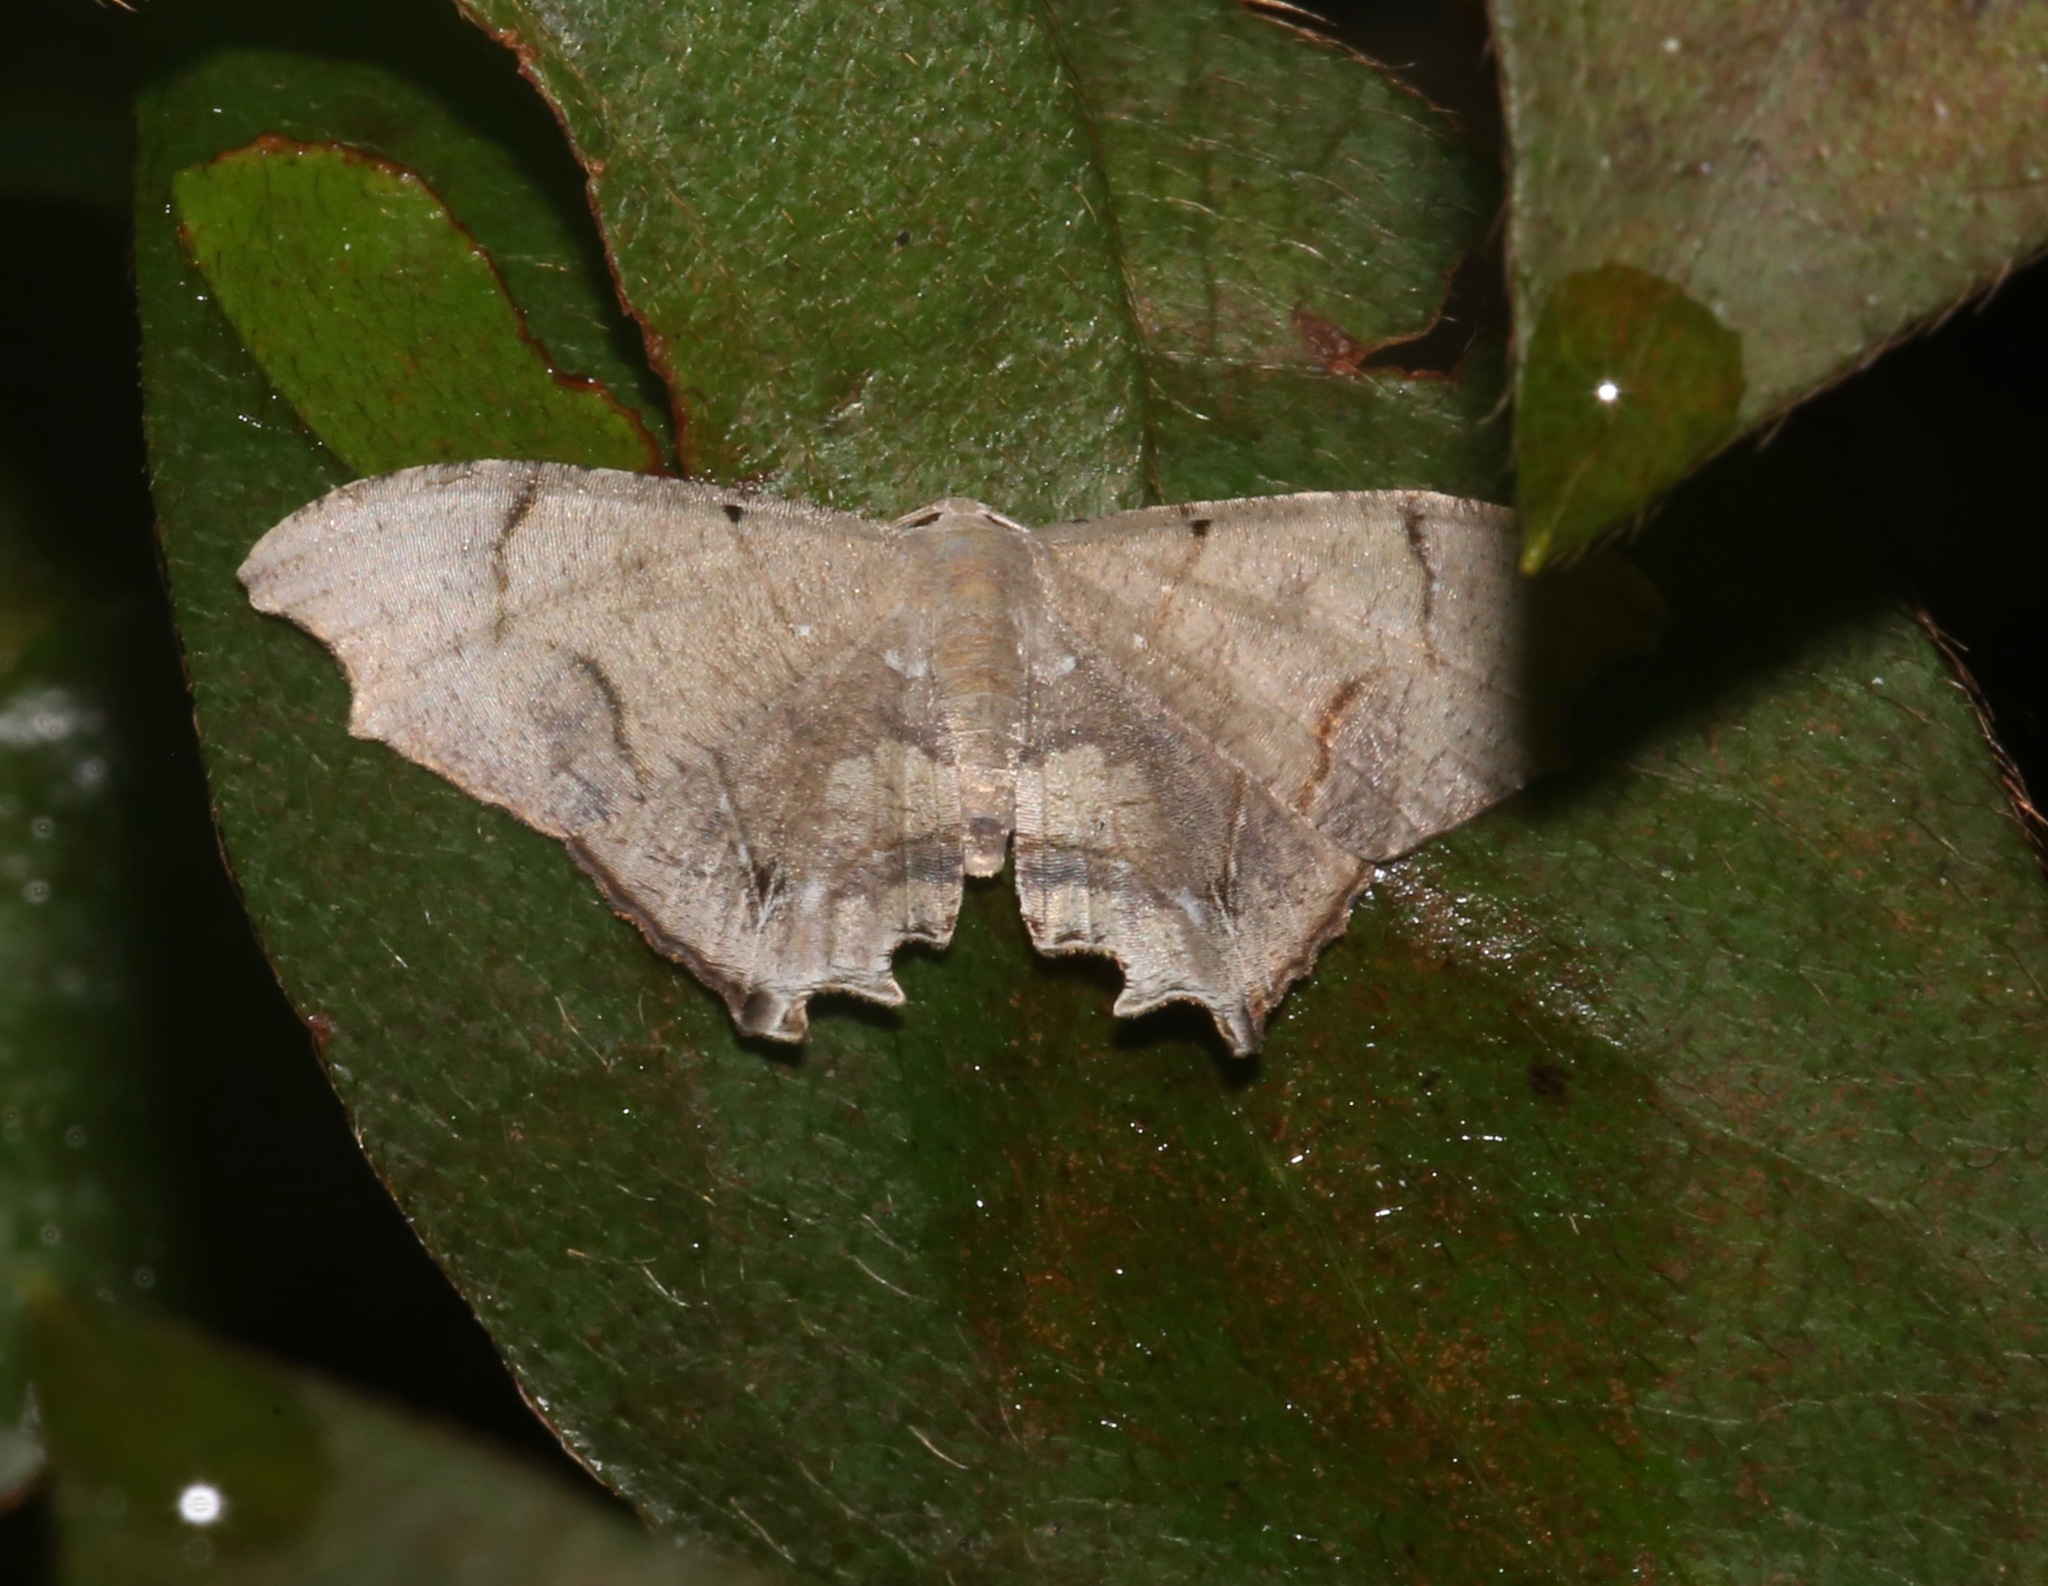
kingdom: Animalia
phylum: Arthropoda
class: Insecta
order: Lepidoptera
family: Uraniidae
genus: Trotorhombia
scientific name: Trotorhombia metachromata
